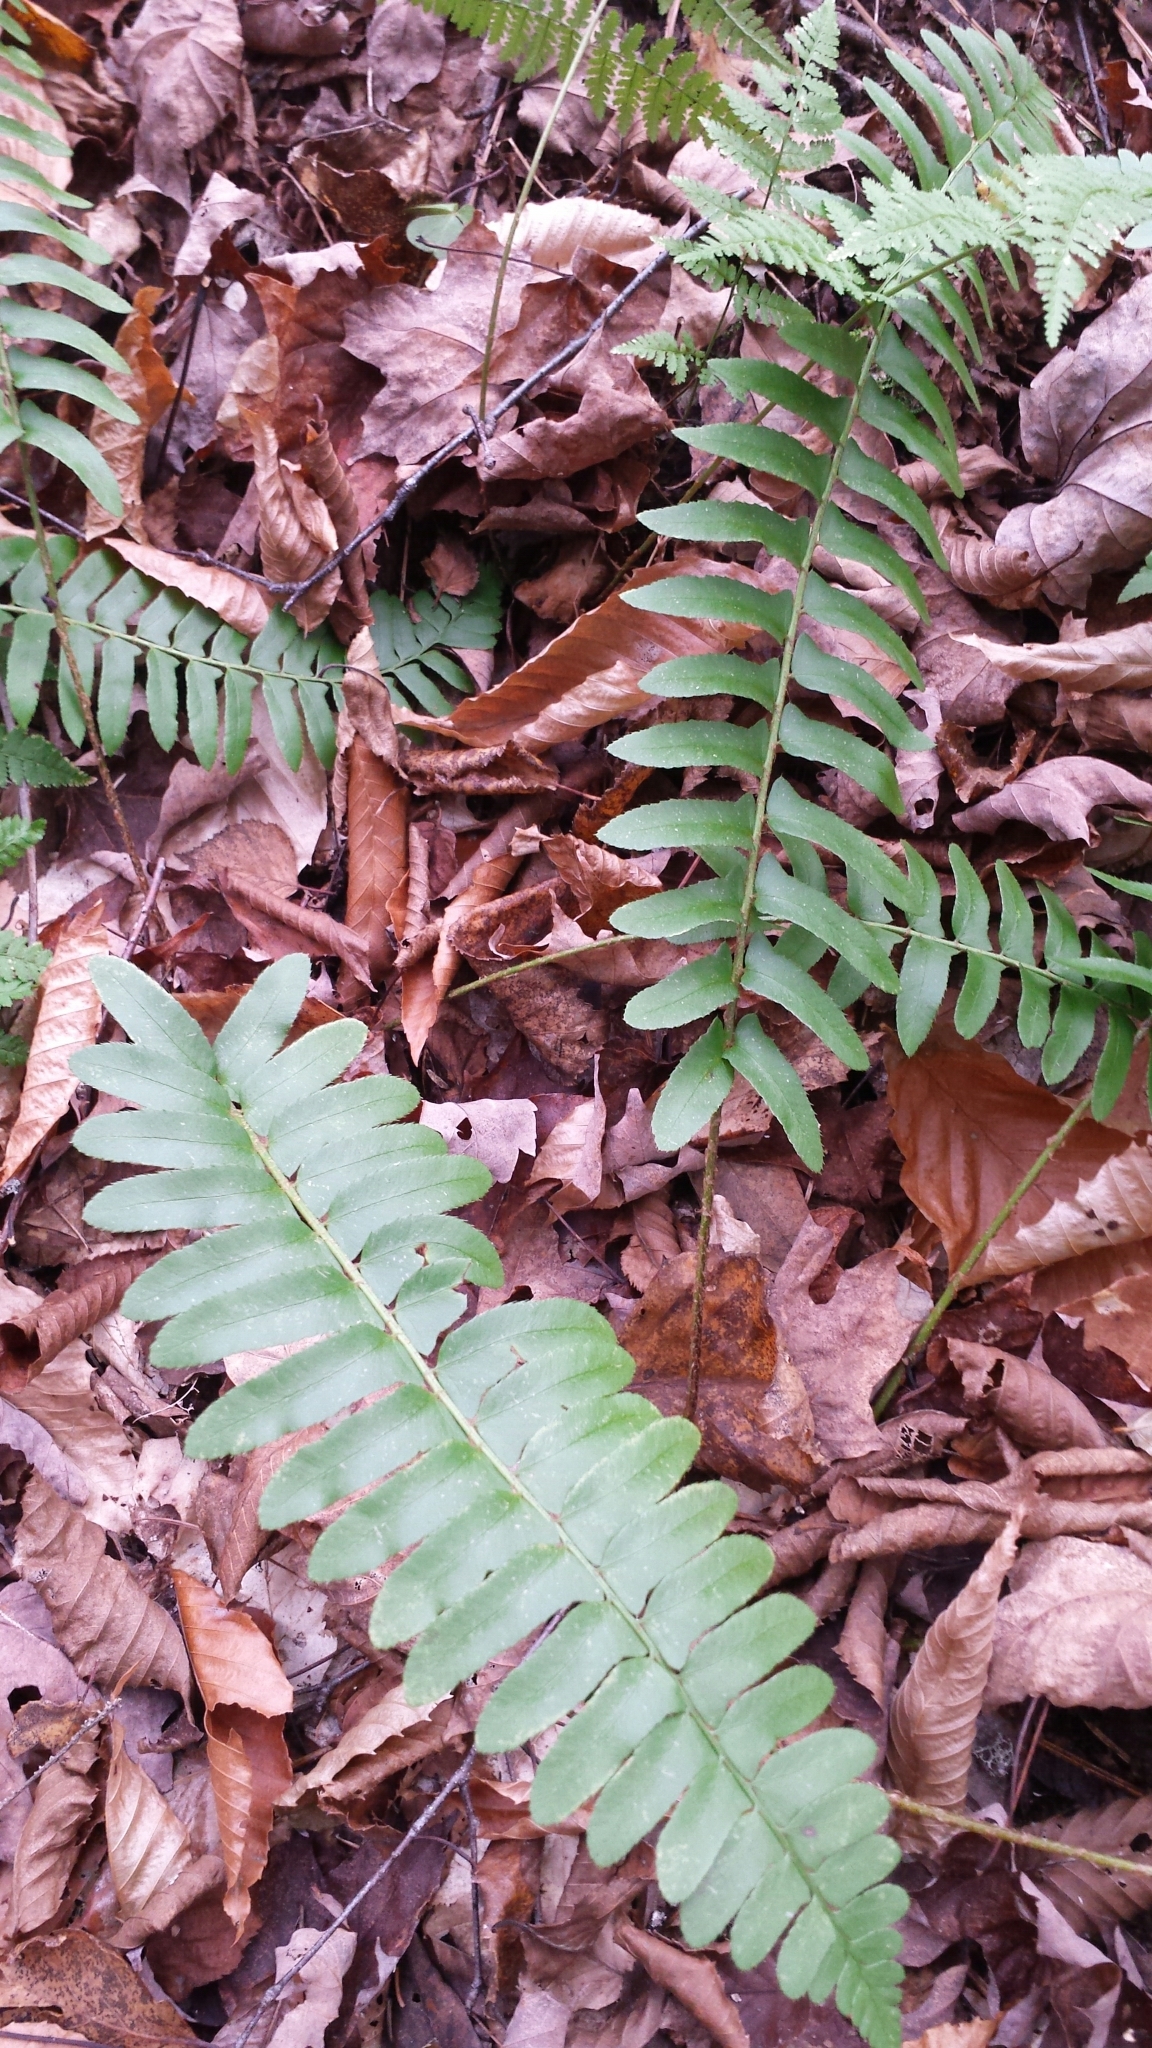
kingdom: Plantae
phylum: Tracheophyta
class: Polypodiopsida
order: Polypodiales
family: Dryopteridaceae
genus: Polystichum
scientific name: Polystichum acrostichoides
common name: Christmas fern
